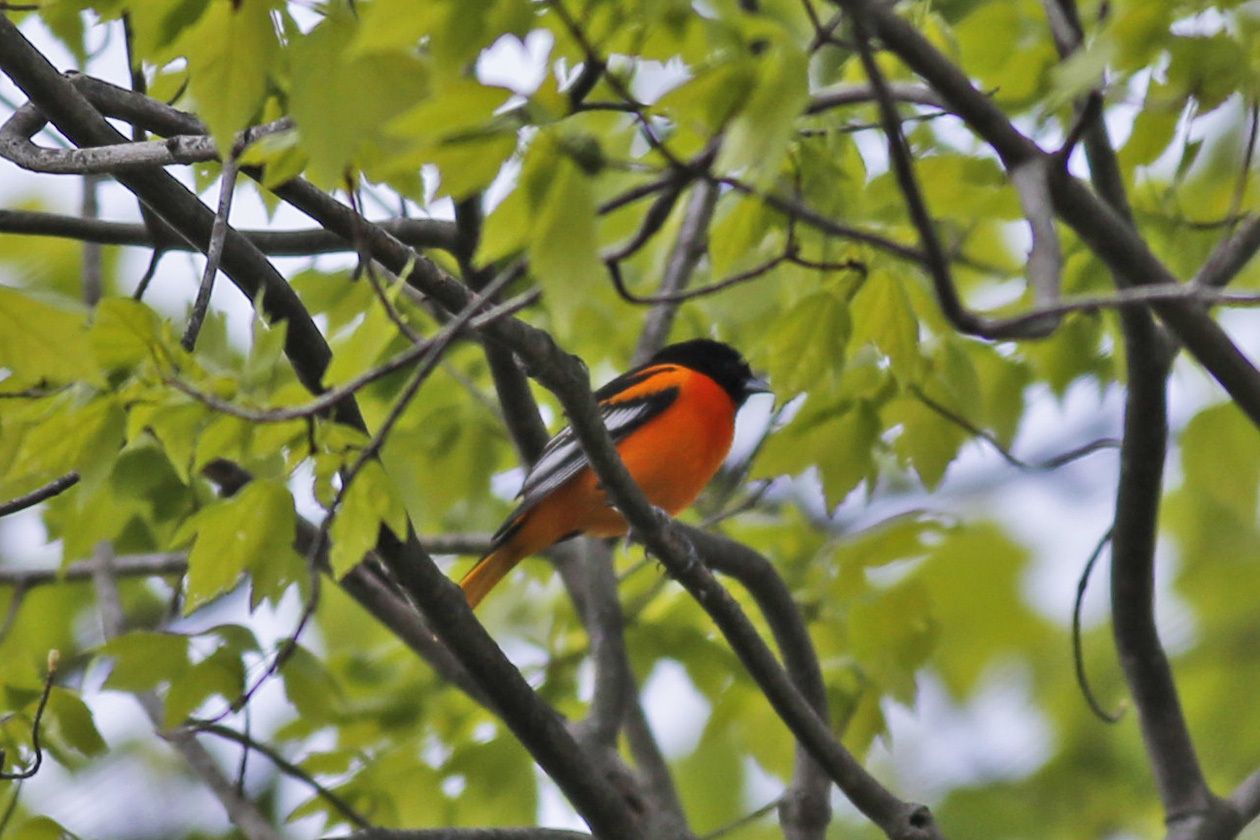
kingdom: Animalia
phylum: Chordata
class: Aves
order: Passeriformes
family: Icteridae
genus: Icterus
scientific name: Icterus galbula
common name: Baltimore oriole
